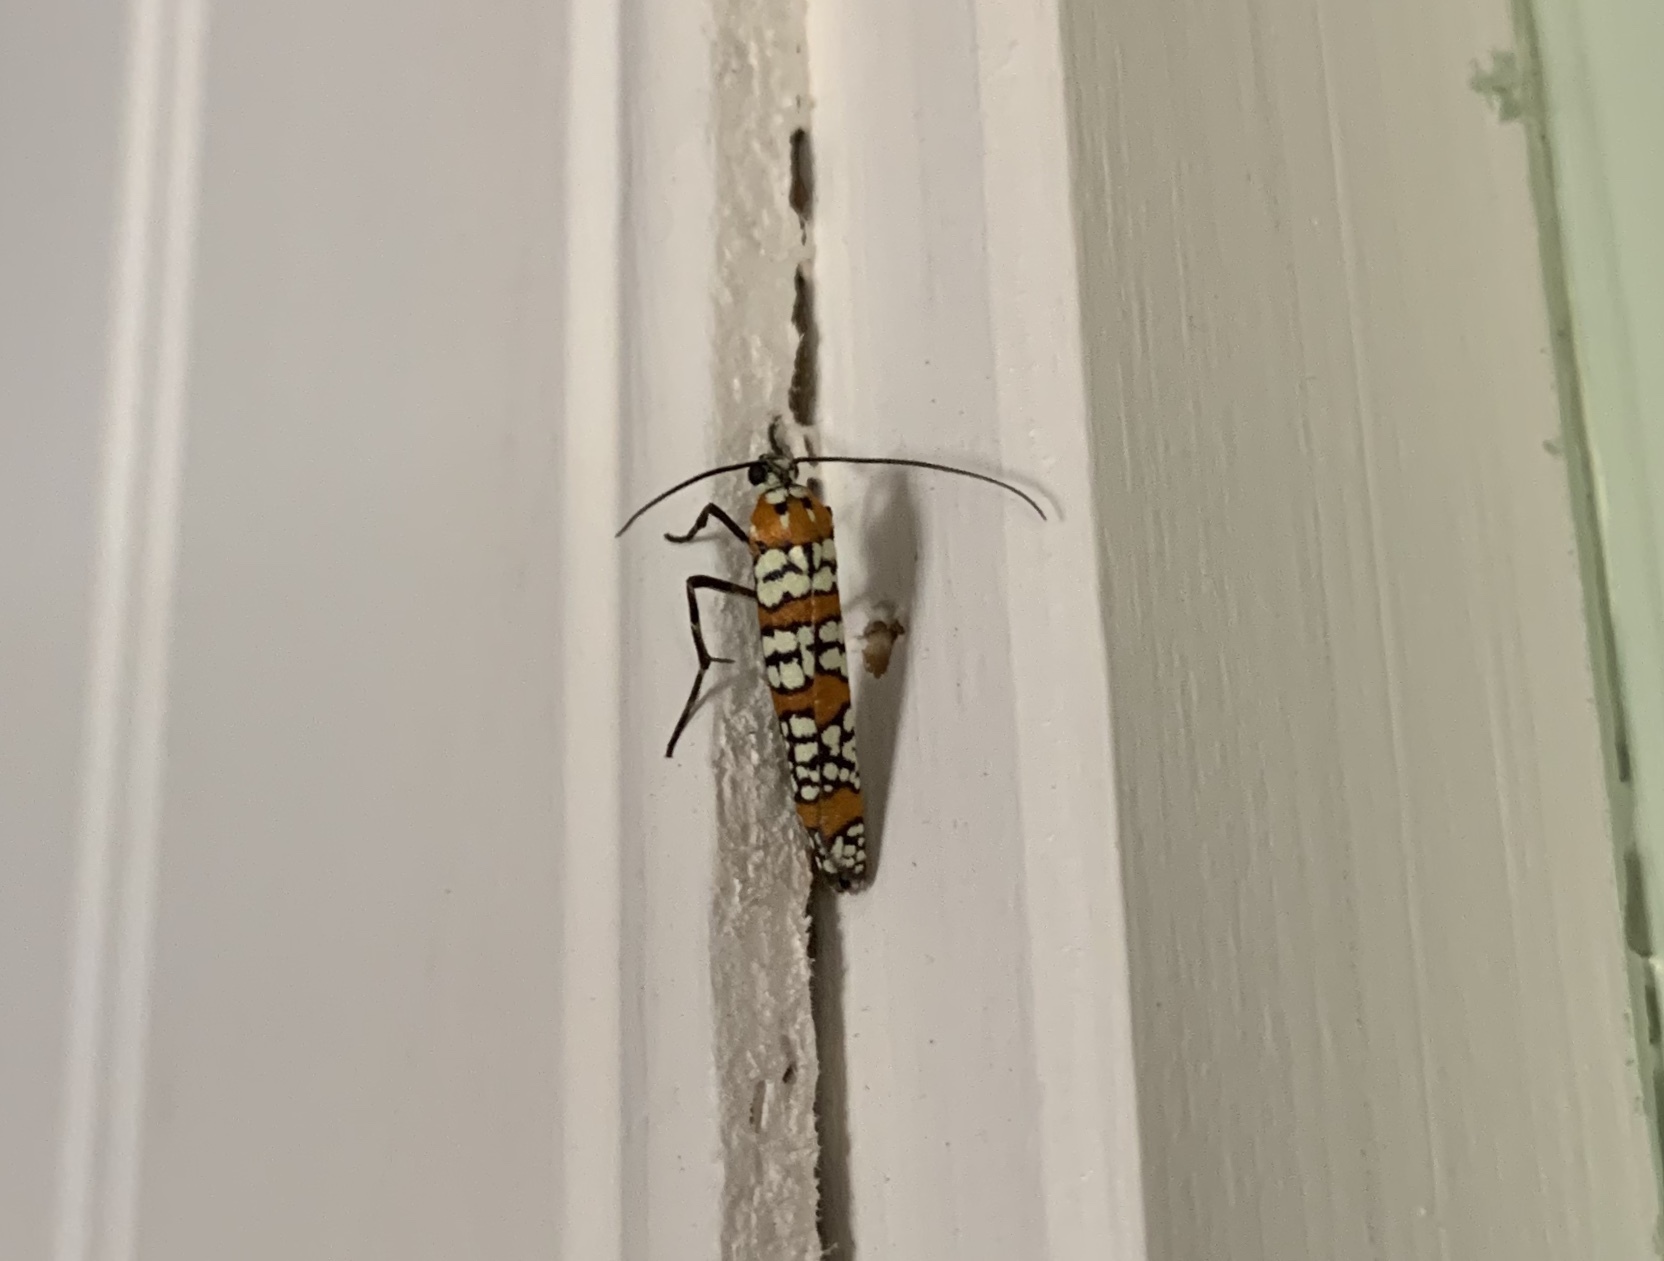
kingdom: Animalia
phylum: Arthropoda
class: Insecta
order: Lepidoptera
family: Attevidae
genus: Atteva
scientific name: Atteva punctella
